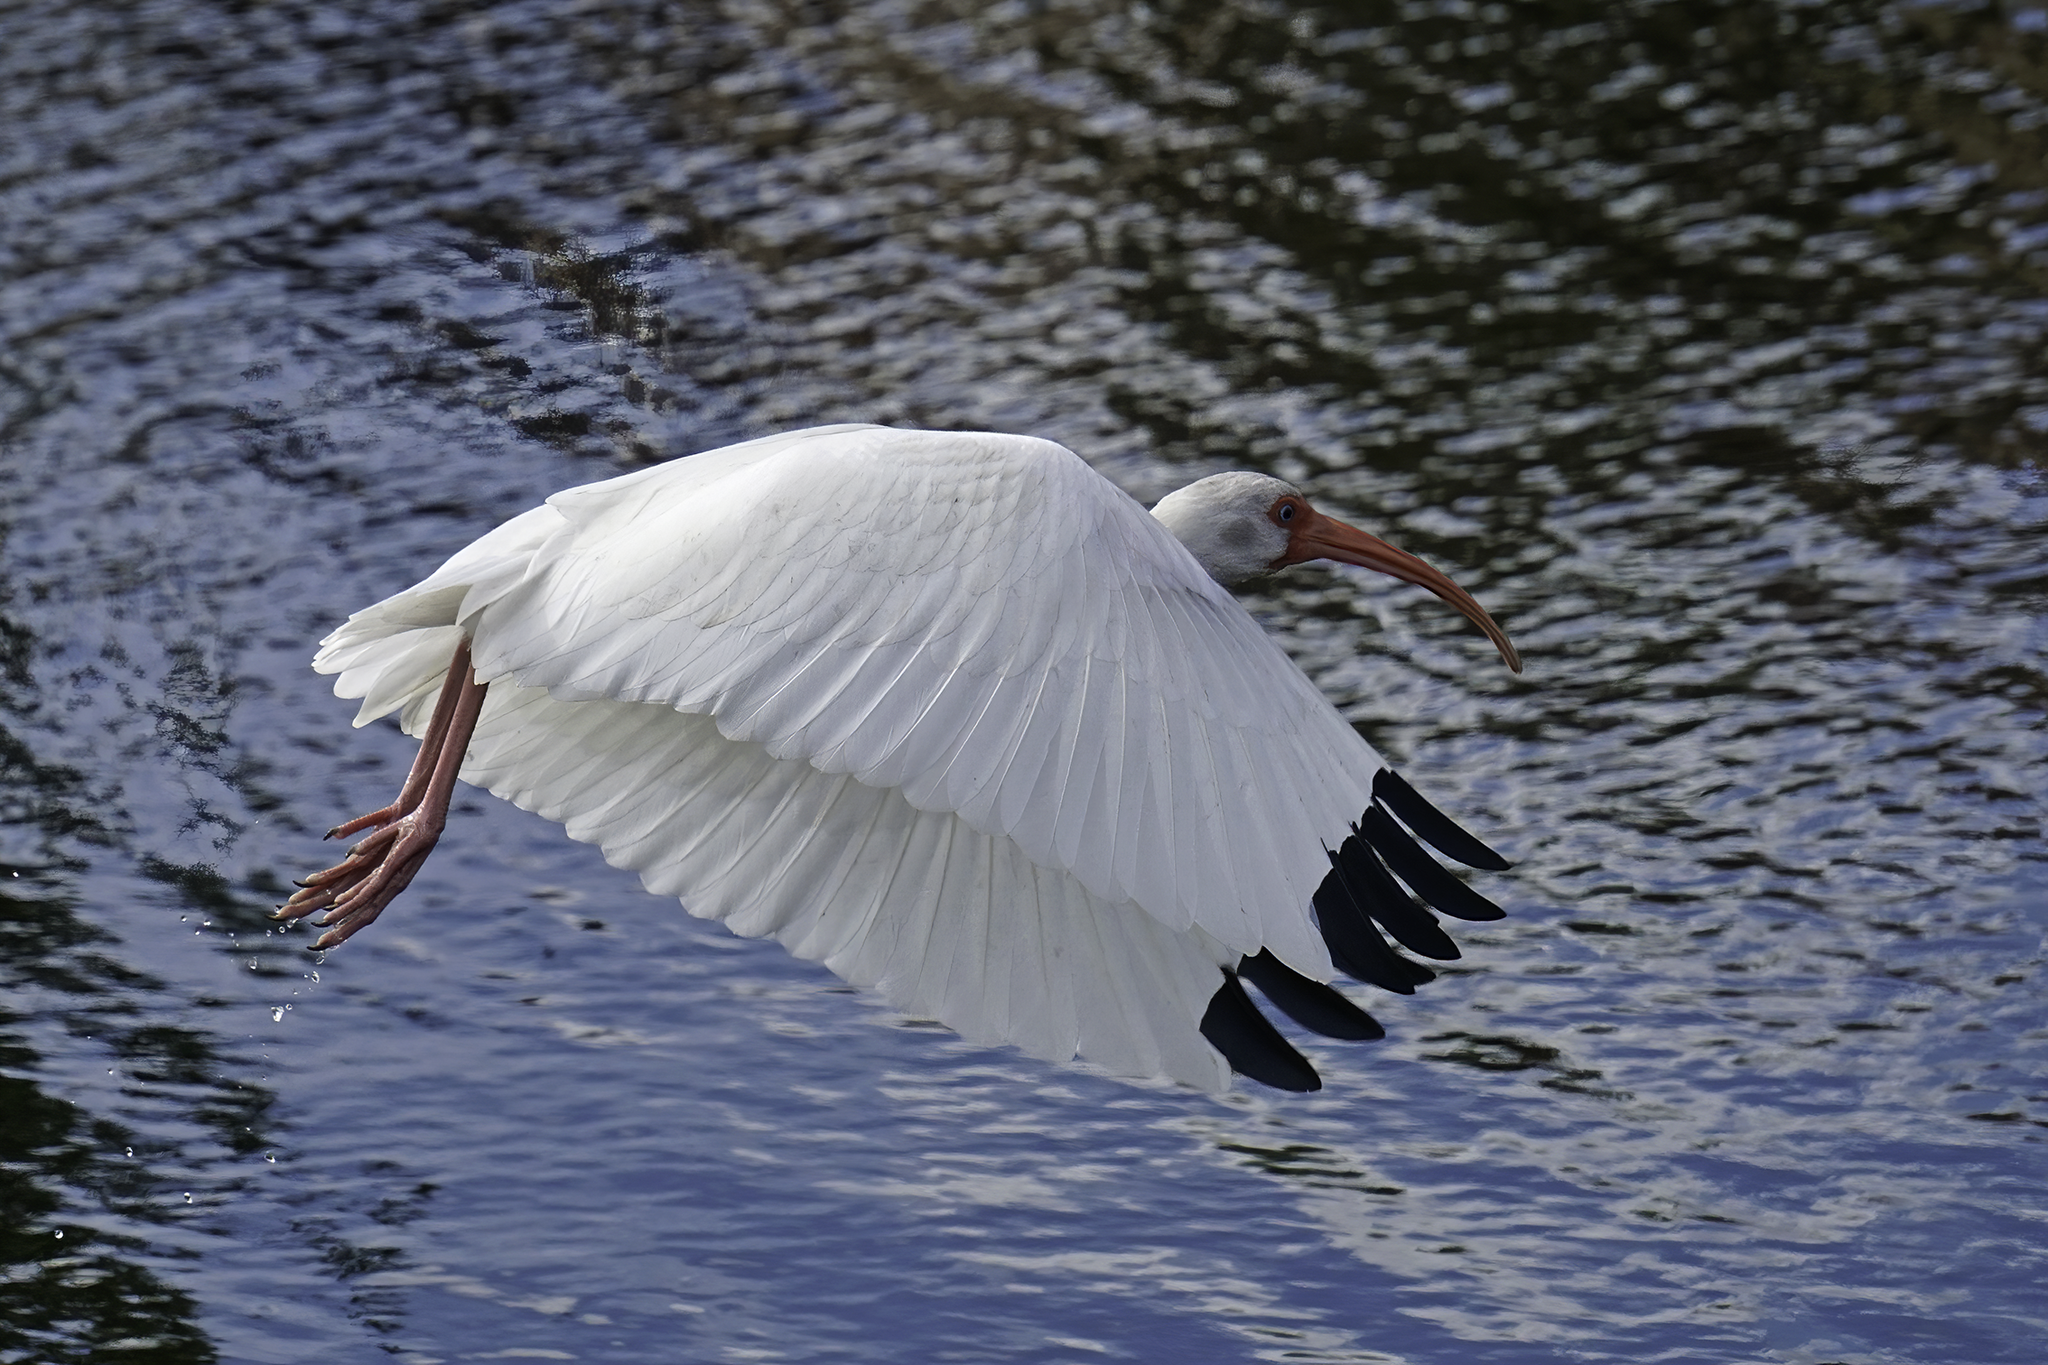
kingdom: Animalia
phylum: Chordata
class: Aves
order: Pelecaniformes
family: Threskiornithidae
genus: Eudocimus
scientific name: Eudocimus albus
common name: White ibis
